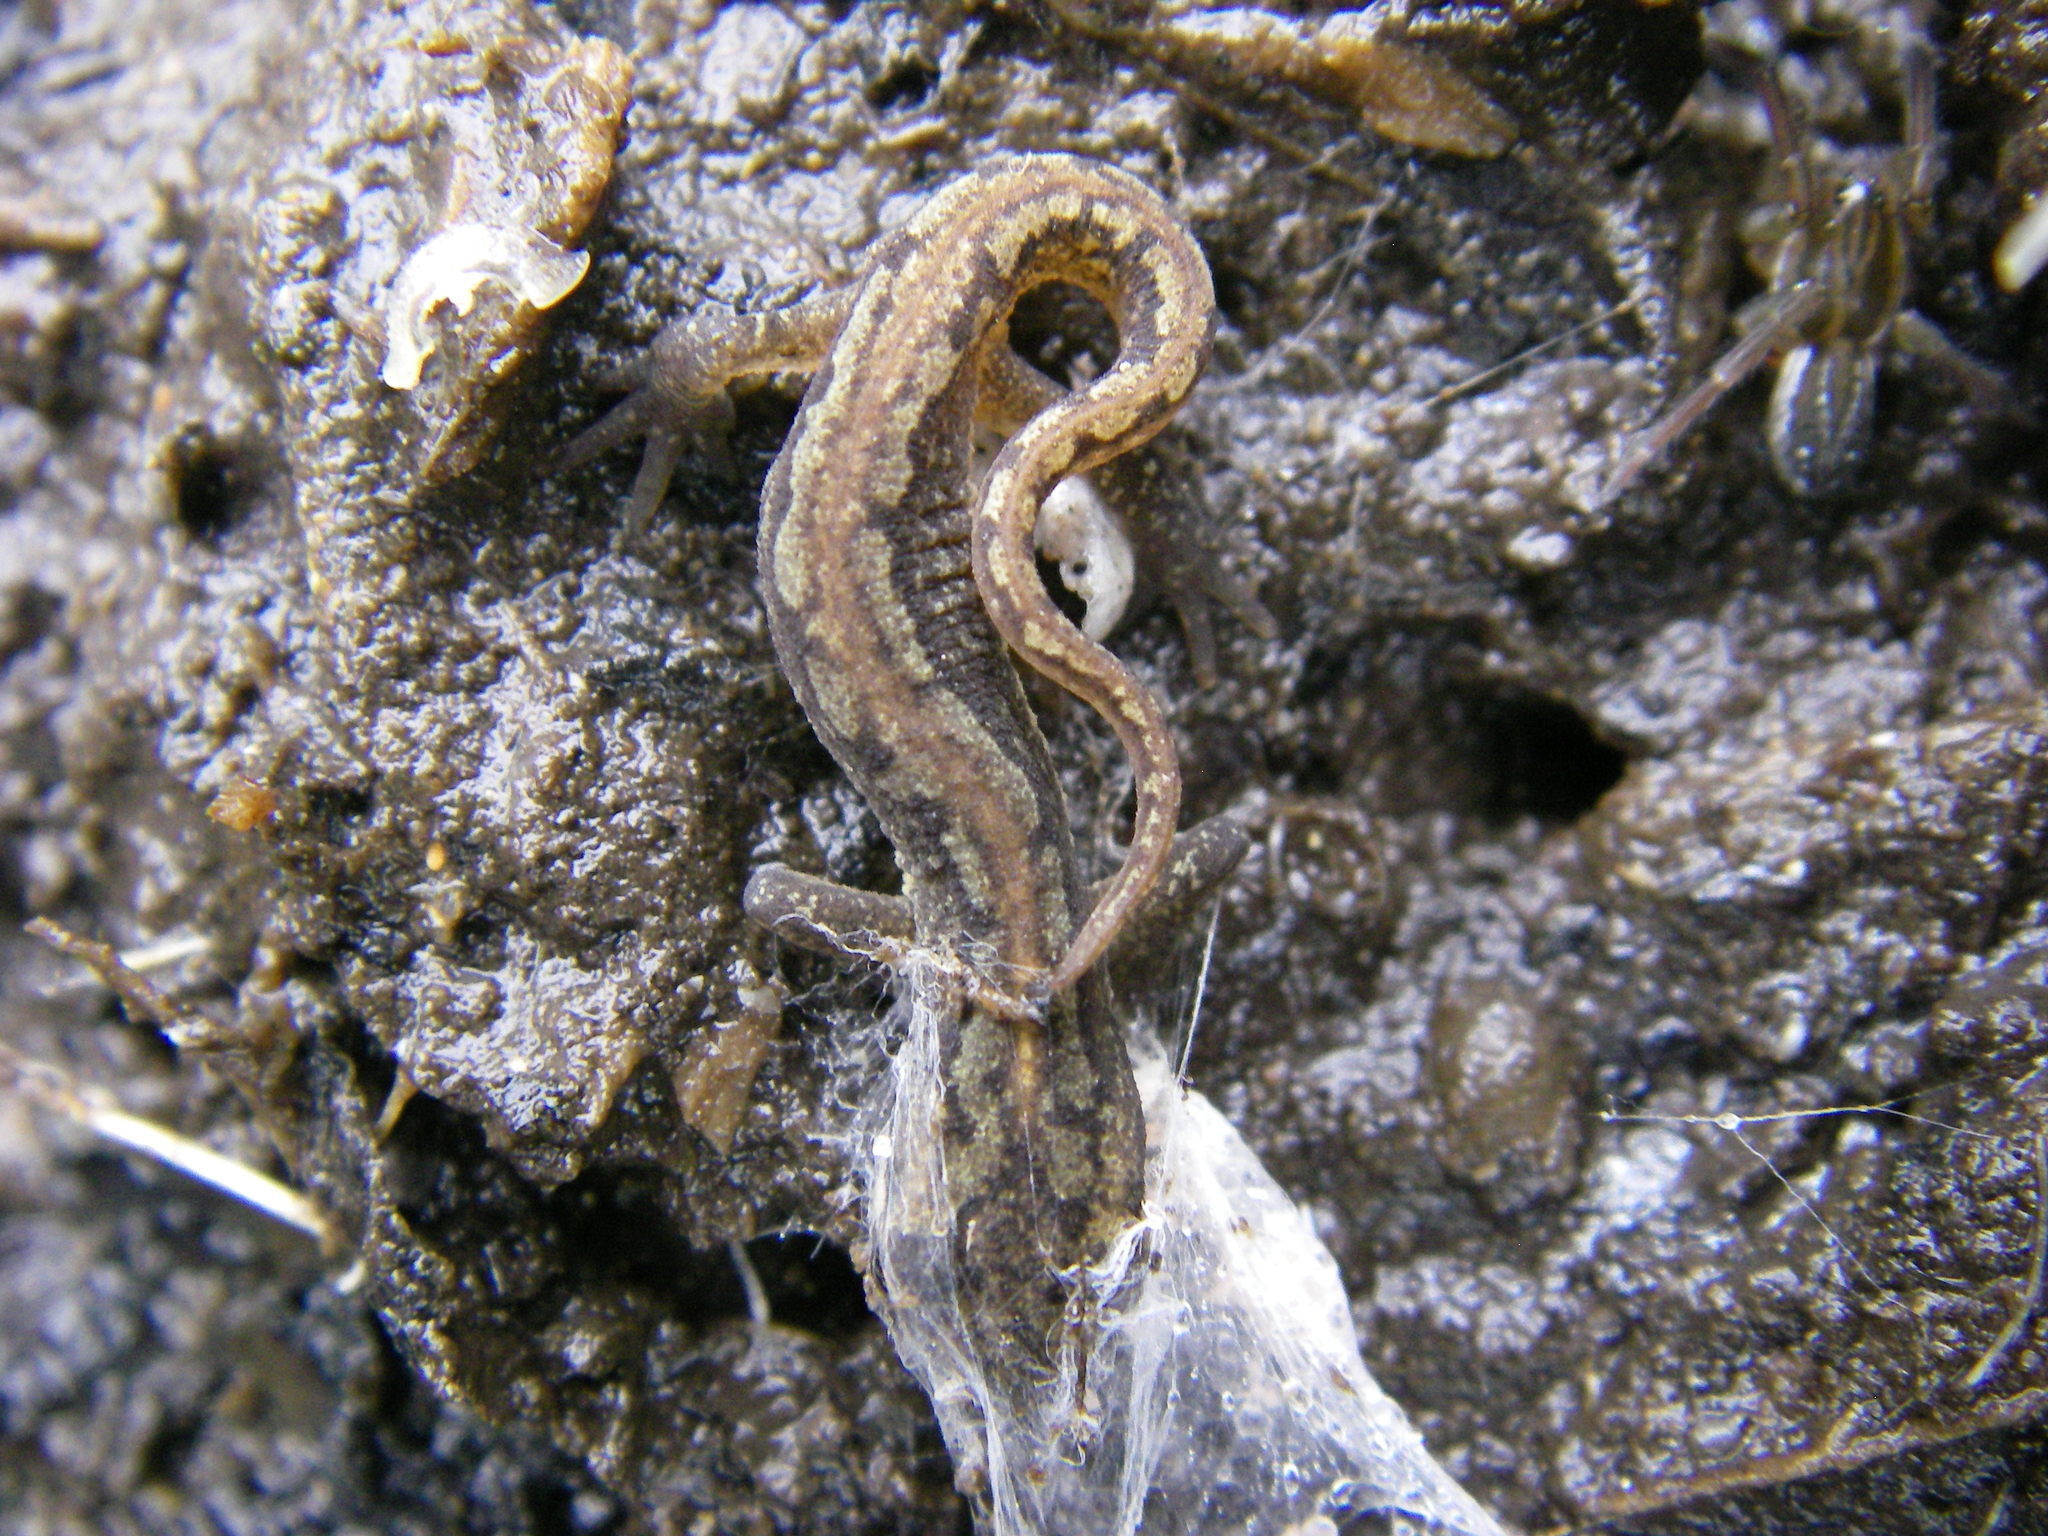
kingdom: Animalia
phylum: Chordata
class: Amphibia
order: Caudata
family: Salamandridae
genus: Lissotriton
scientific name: Lissotriton vulgaris
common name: Smooth newt
